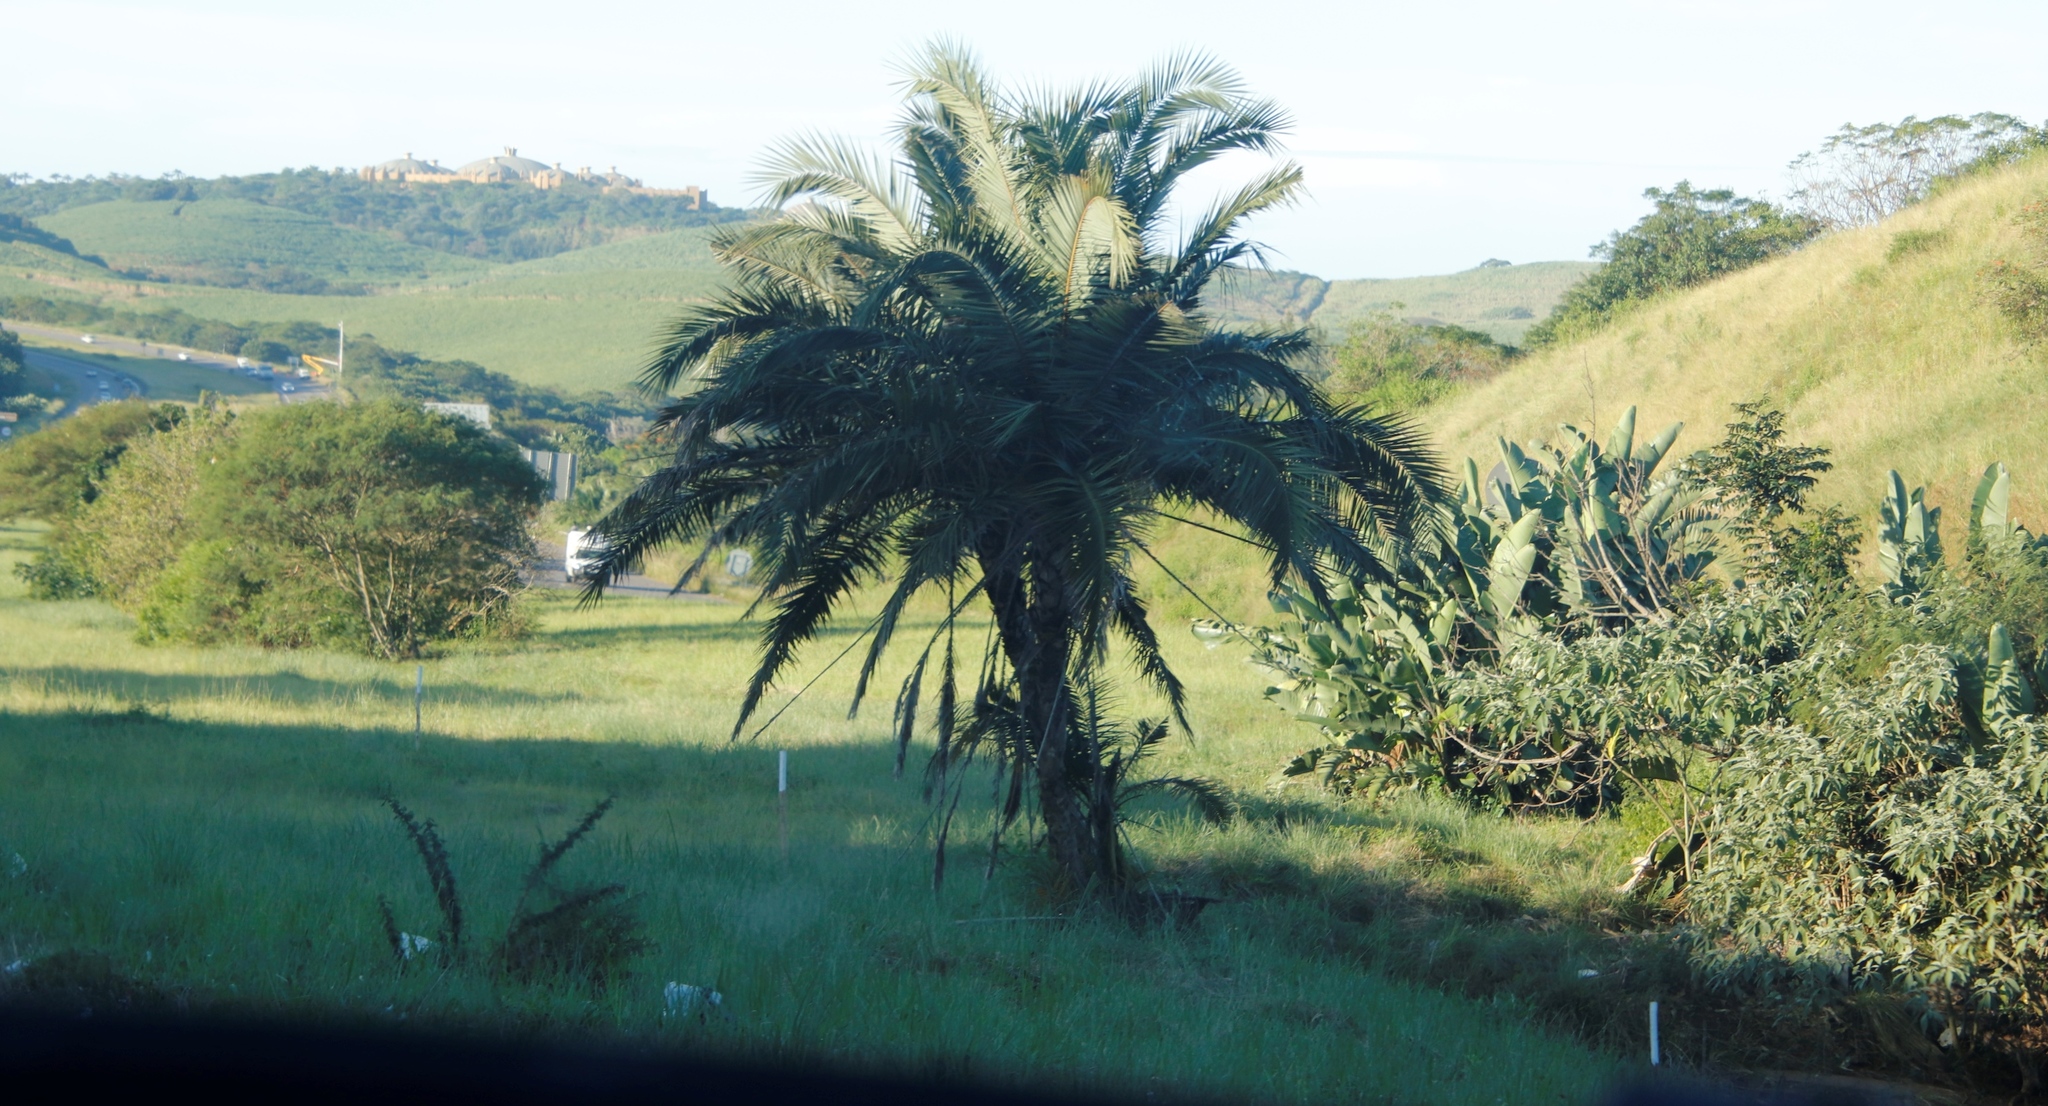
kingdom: Plantae
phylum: Tracheophyta
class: Liliopsida
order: Arecales
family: Arecaceae
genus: Phoenix
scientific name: Phoenix reclinata
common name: Senegal date palm
